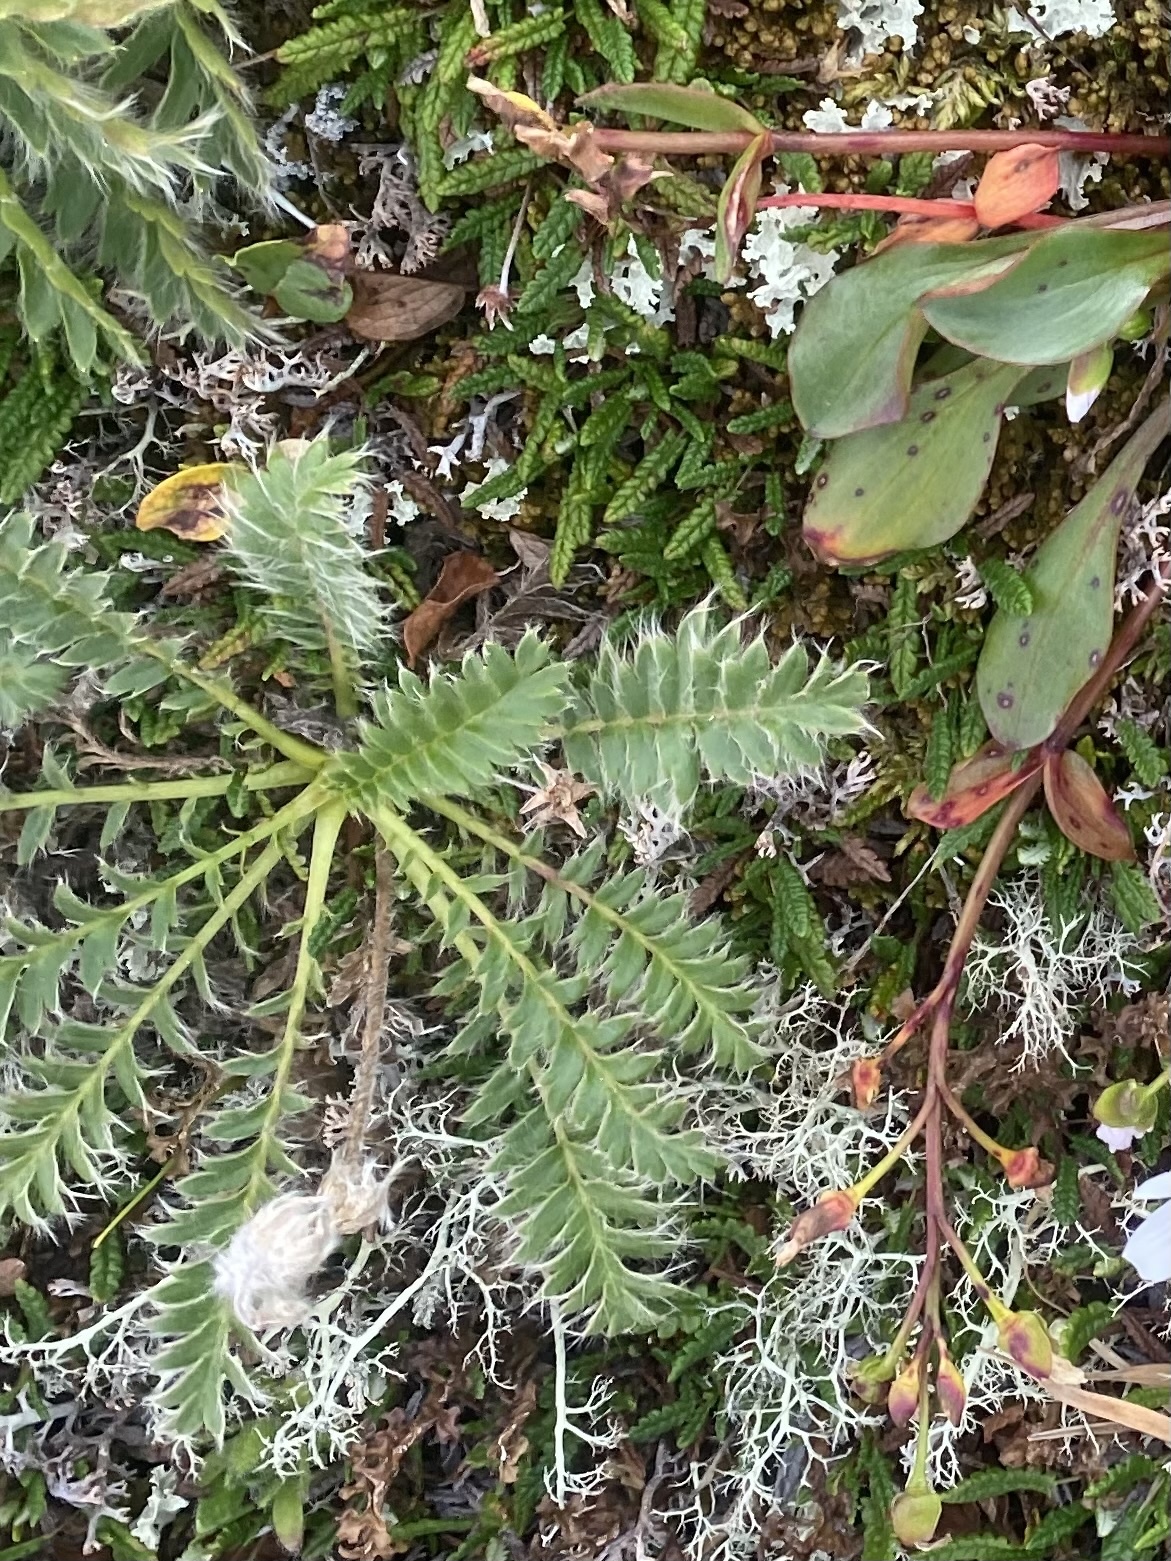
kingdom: Plantae
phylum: Tracheophyta
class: Magnoliopsida
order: Rosales
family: Rosaceae
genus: Geum
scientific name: Geum glaciale
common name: Glacier avens
